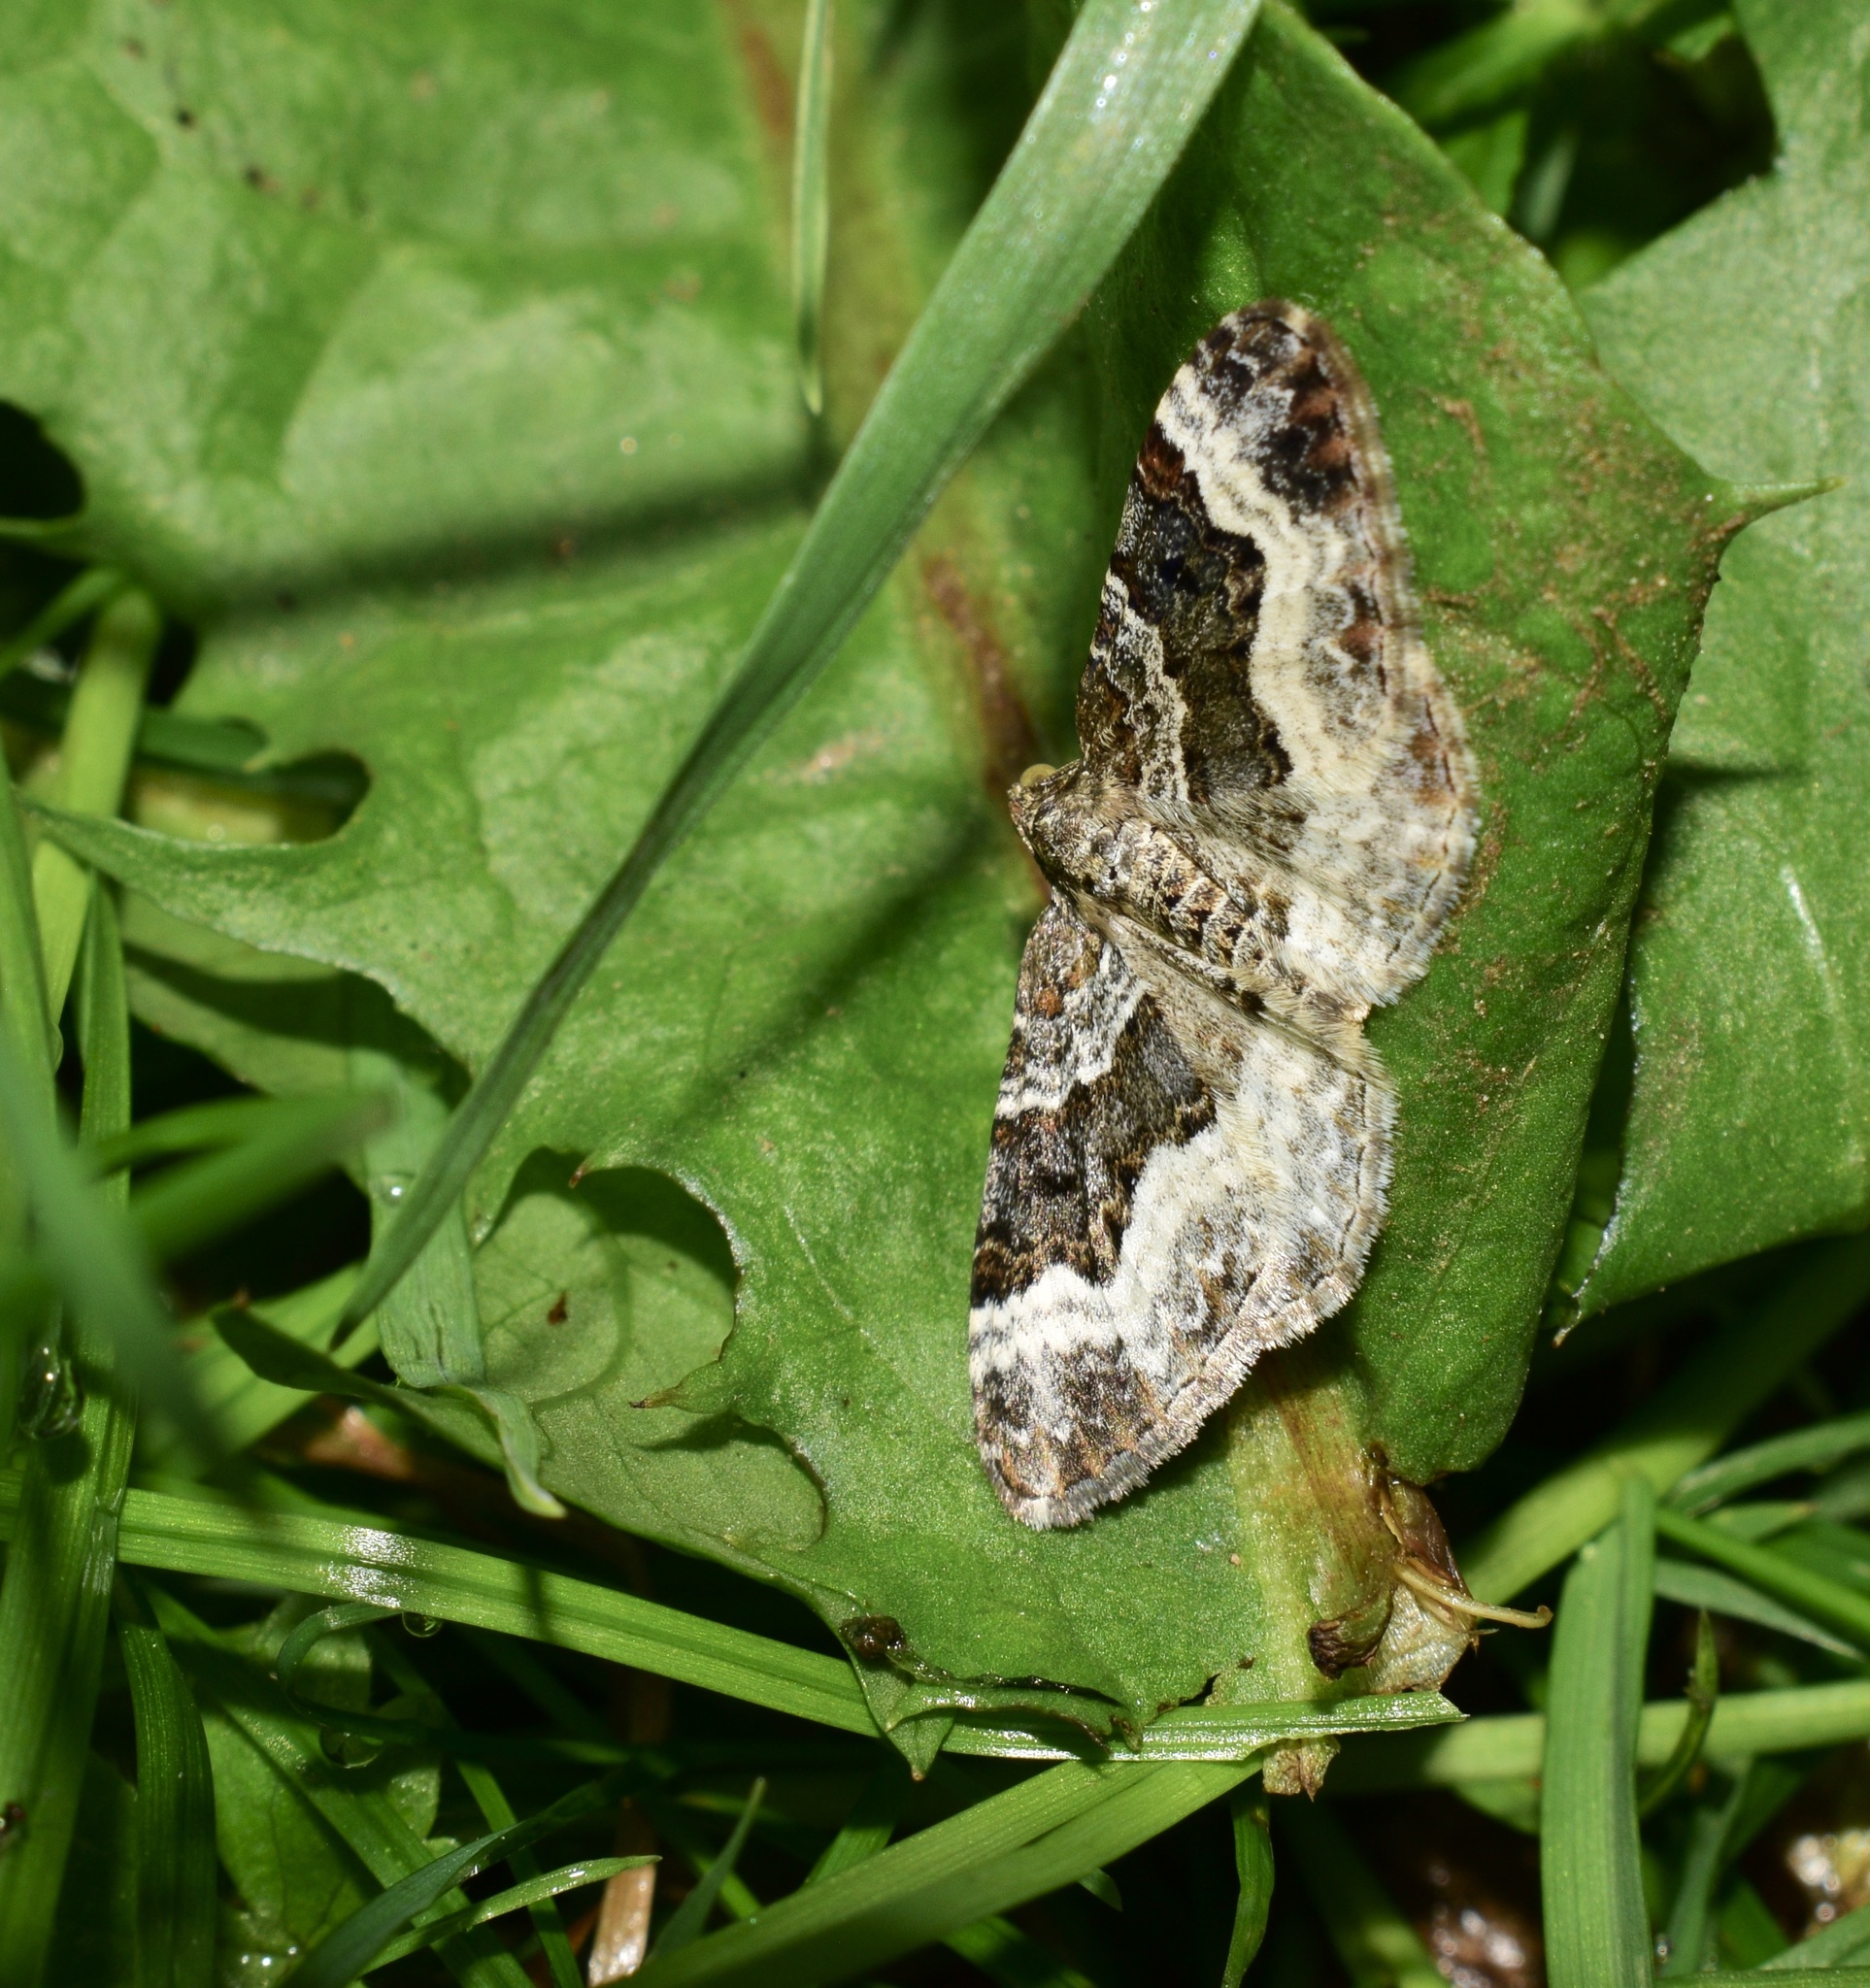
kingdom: Animalia
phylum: Arthropoda
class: Insecta
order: Lepidoptera
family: Geometridae
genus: Epirrhoe
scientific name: Epirrhoe alternata
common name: Common carpet
